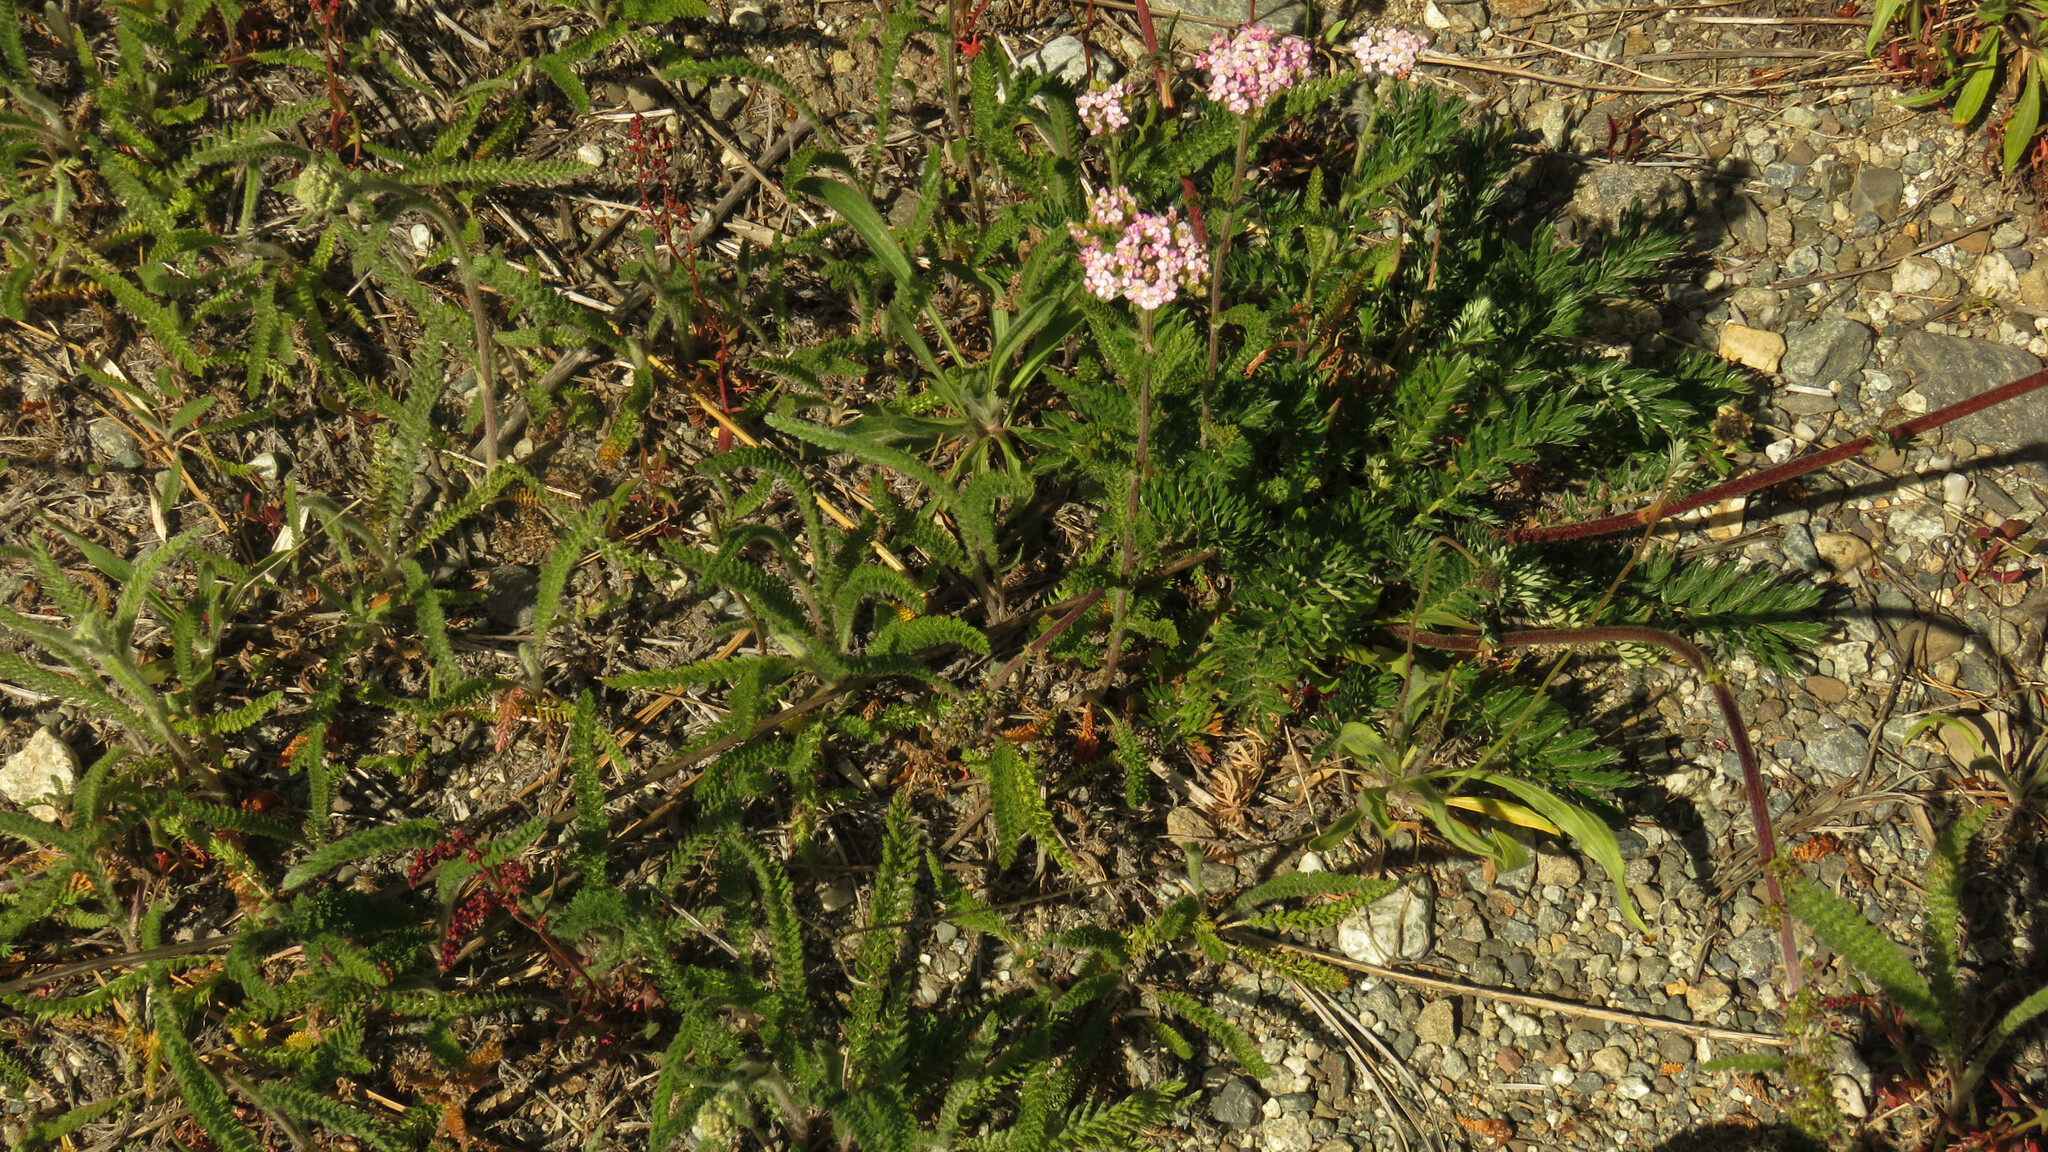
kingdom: Plantae
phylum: Tracheophyta
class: Magnoliopsida
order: Asterales
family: Asteraceae
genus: Achillea
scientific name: Achillea millefolium
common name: Yarrow
